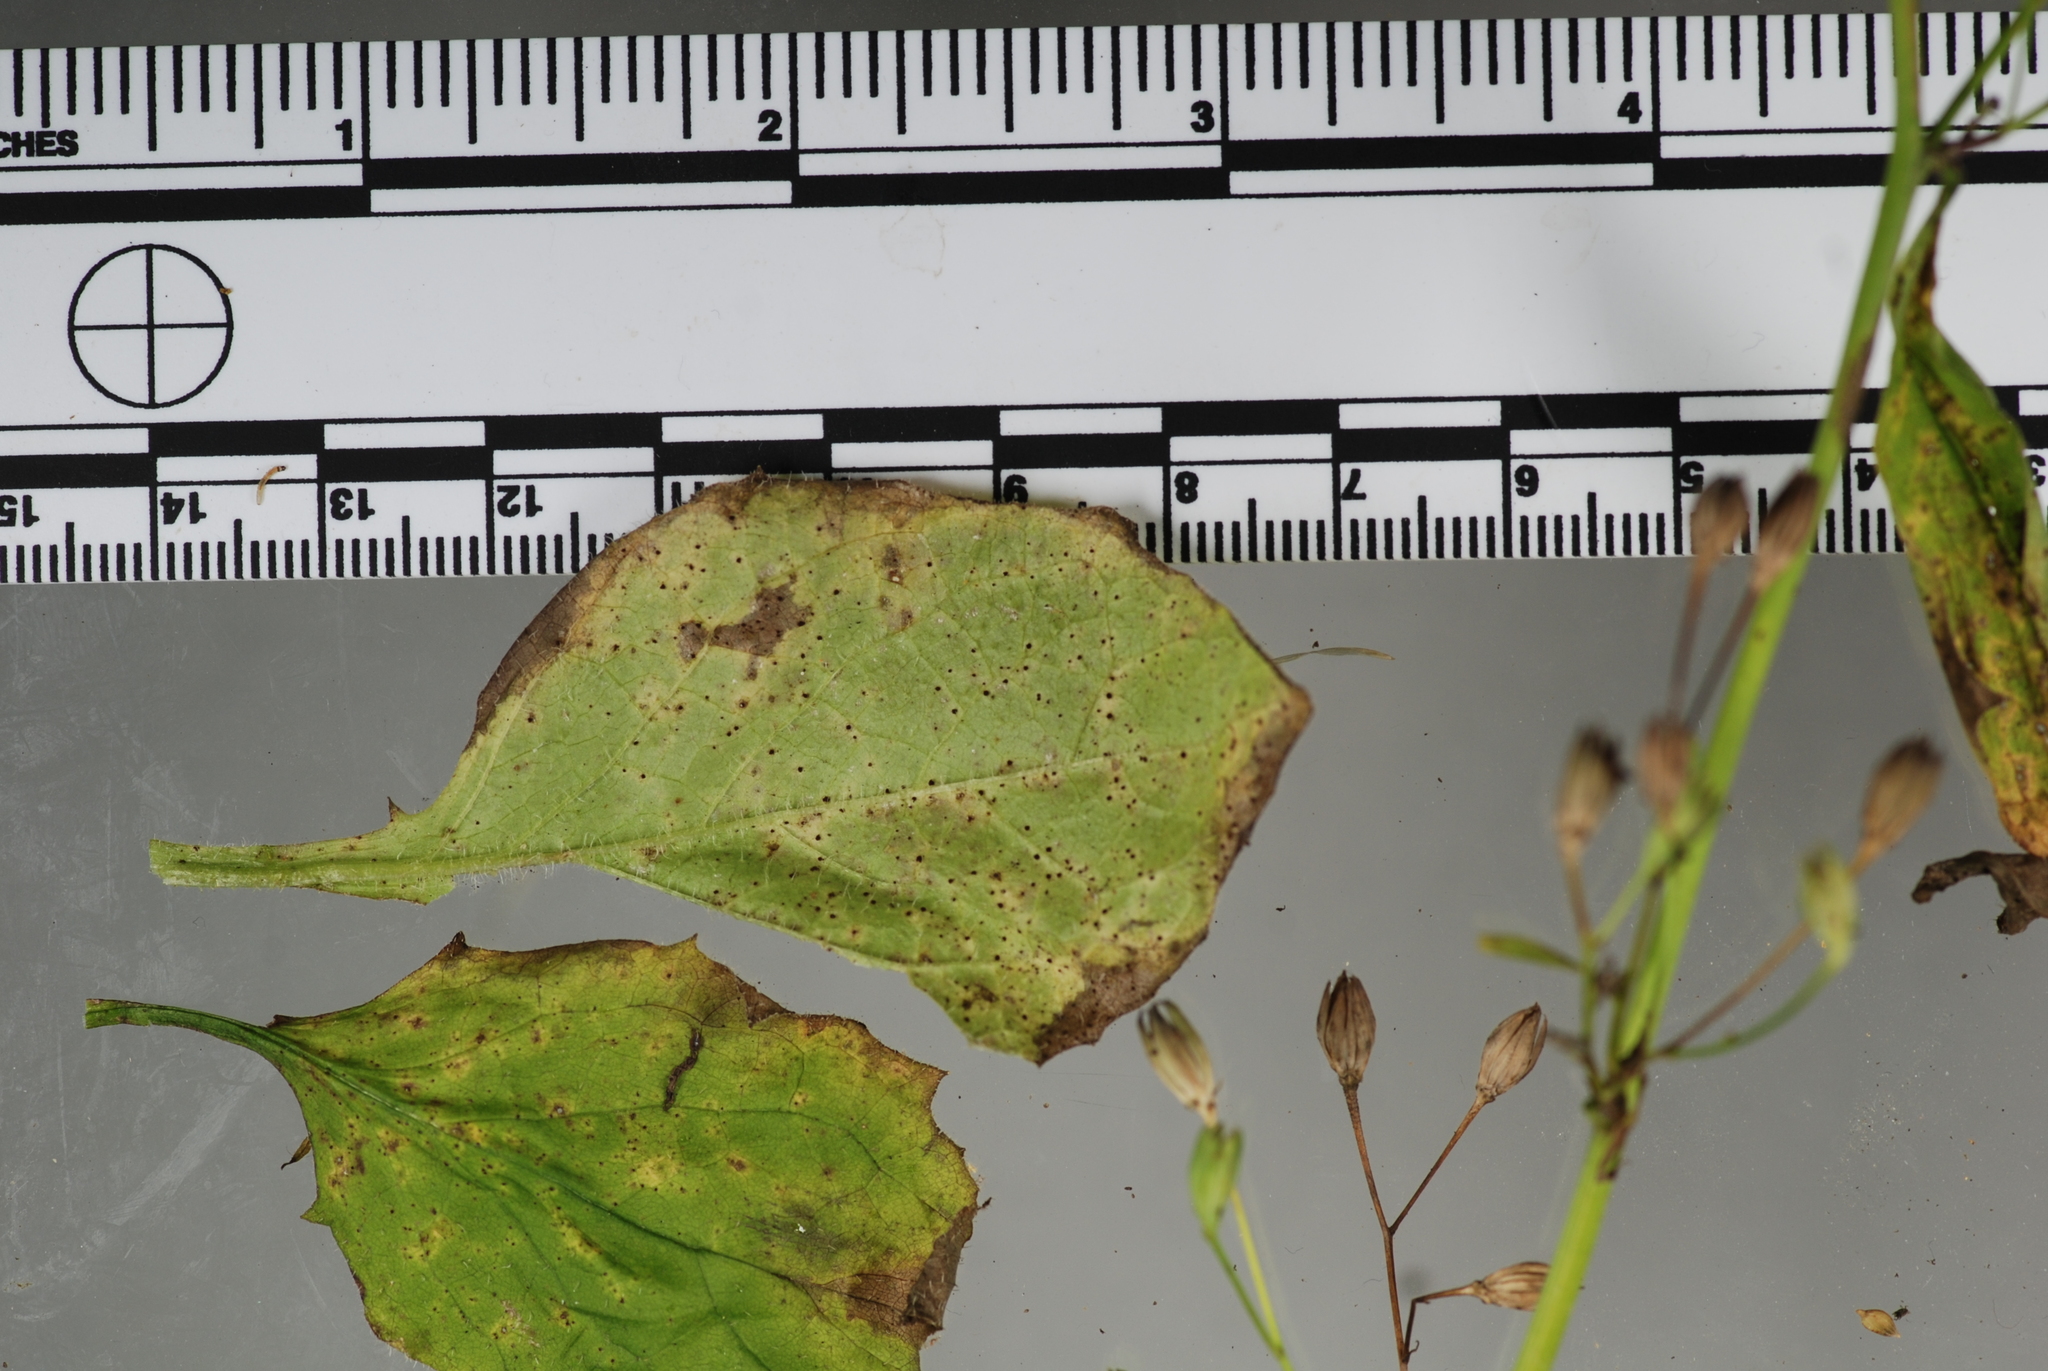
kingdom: Fungi
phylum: Basidiomycota
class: Pucciniomycetes
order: Pucciniales
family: Pucciniaceae
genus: Puccinia
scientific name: Puccinia lapsanae
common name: Nipplewort rust
